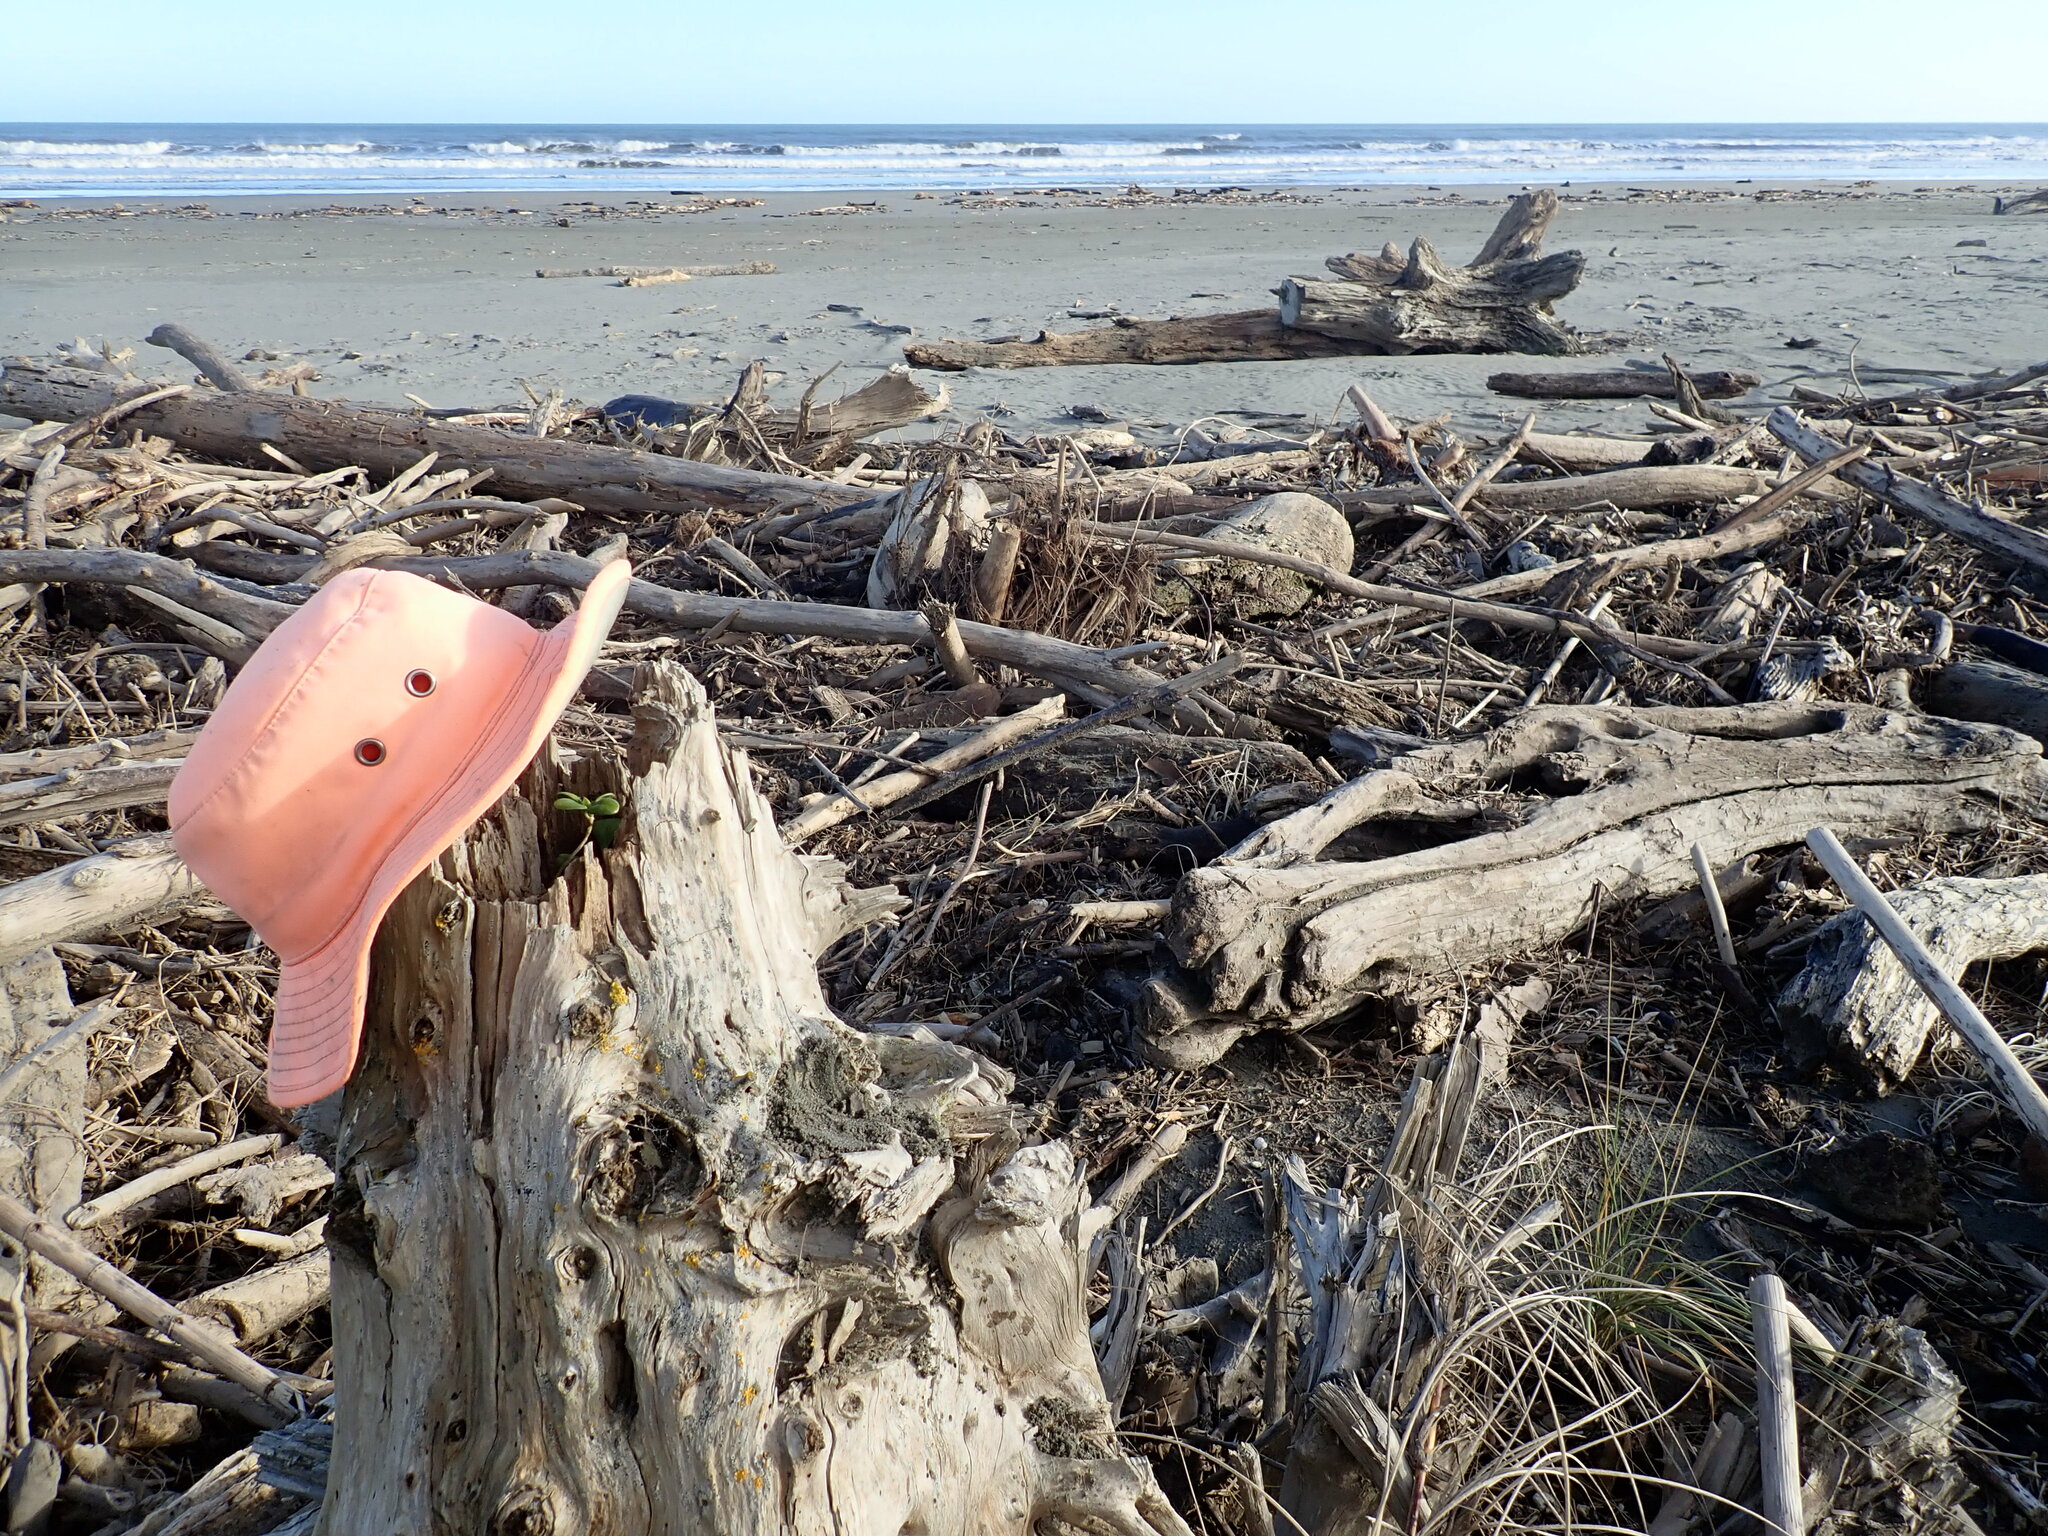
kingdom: Plantae
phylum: Tracheophyta
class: Magnoliopsida
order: Caryophyllales
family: Aizoaceae
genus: Tetragonia
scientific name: Tetragonia implexicoma
